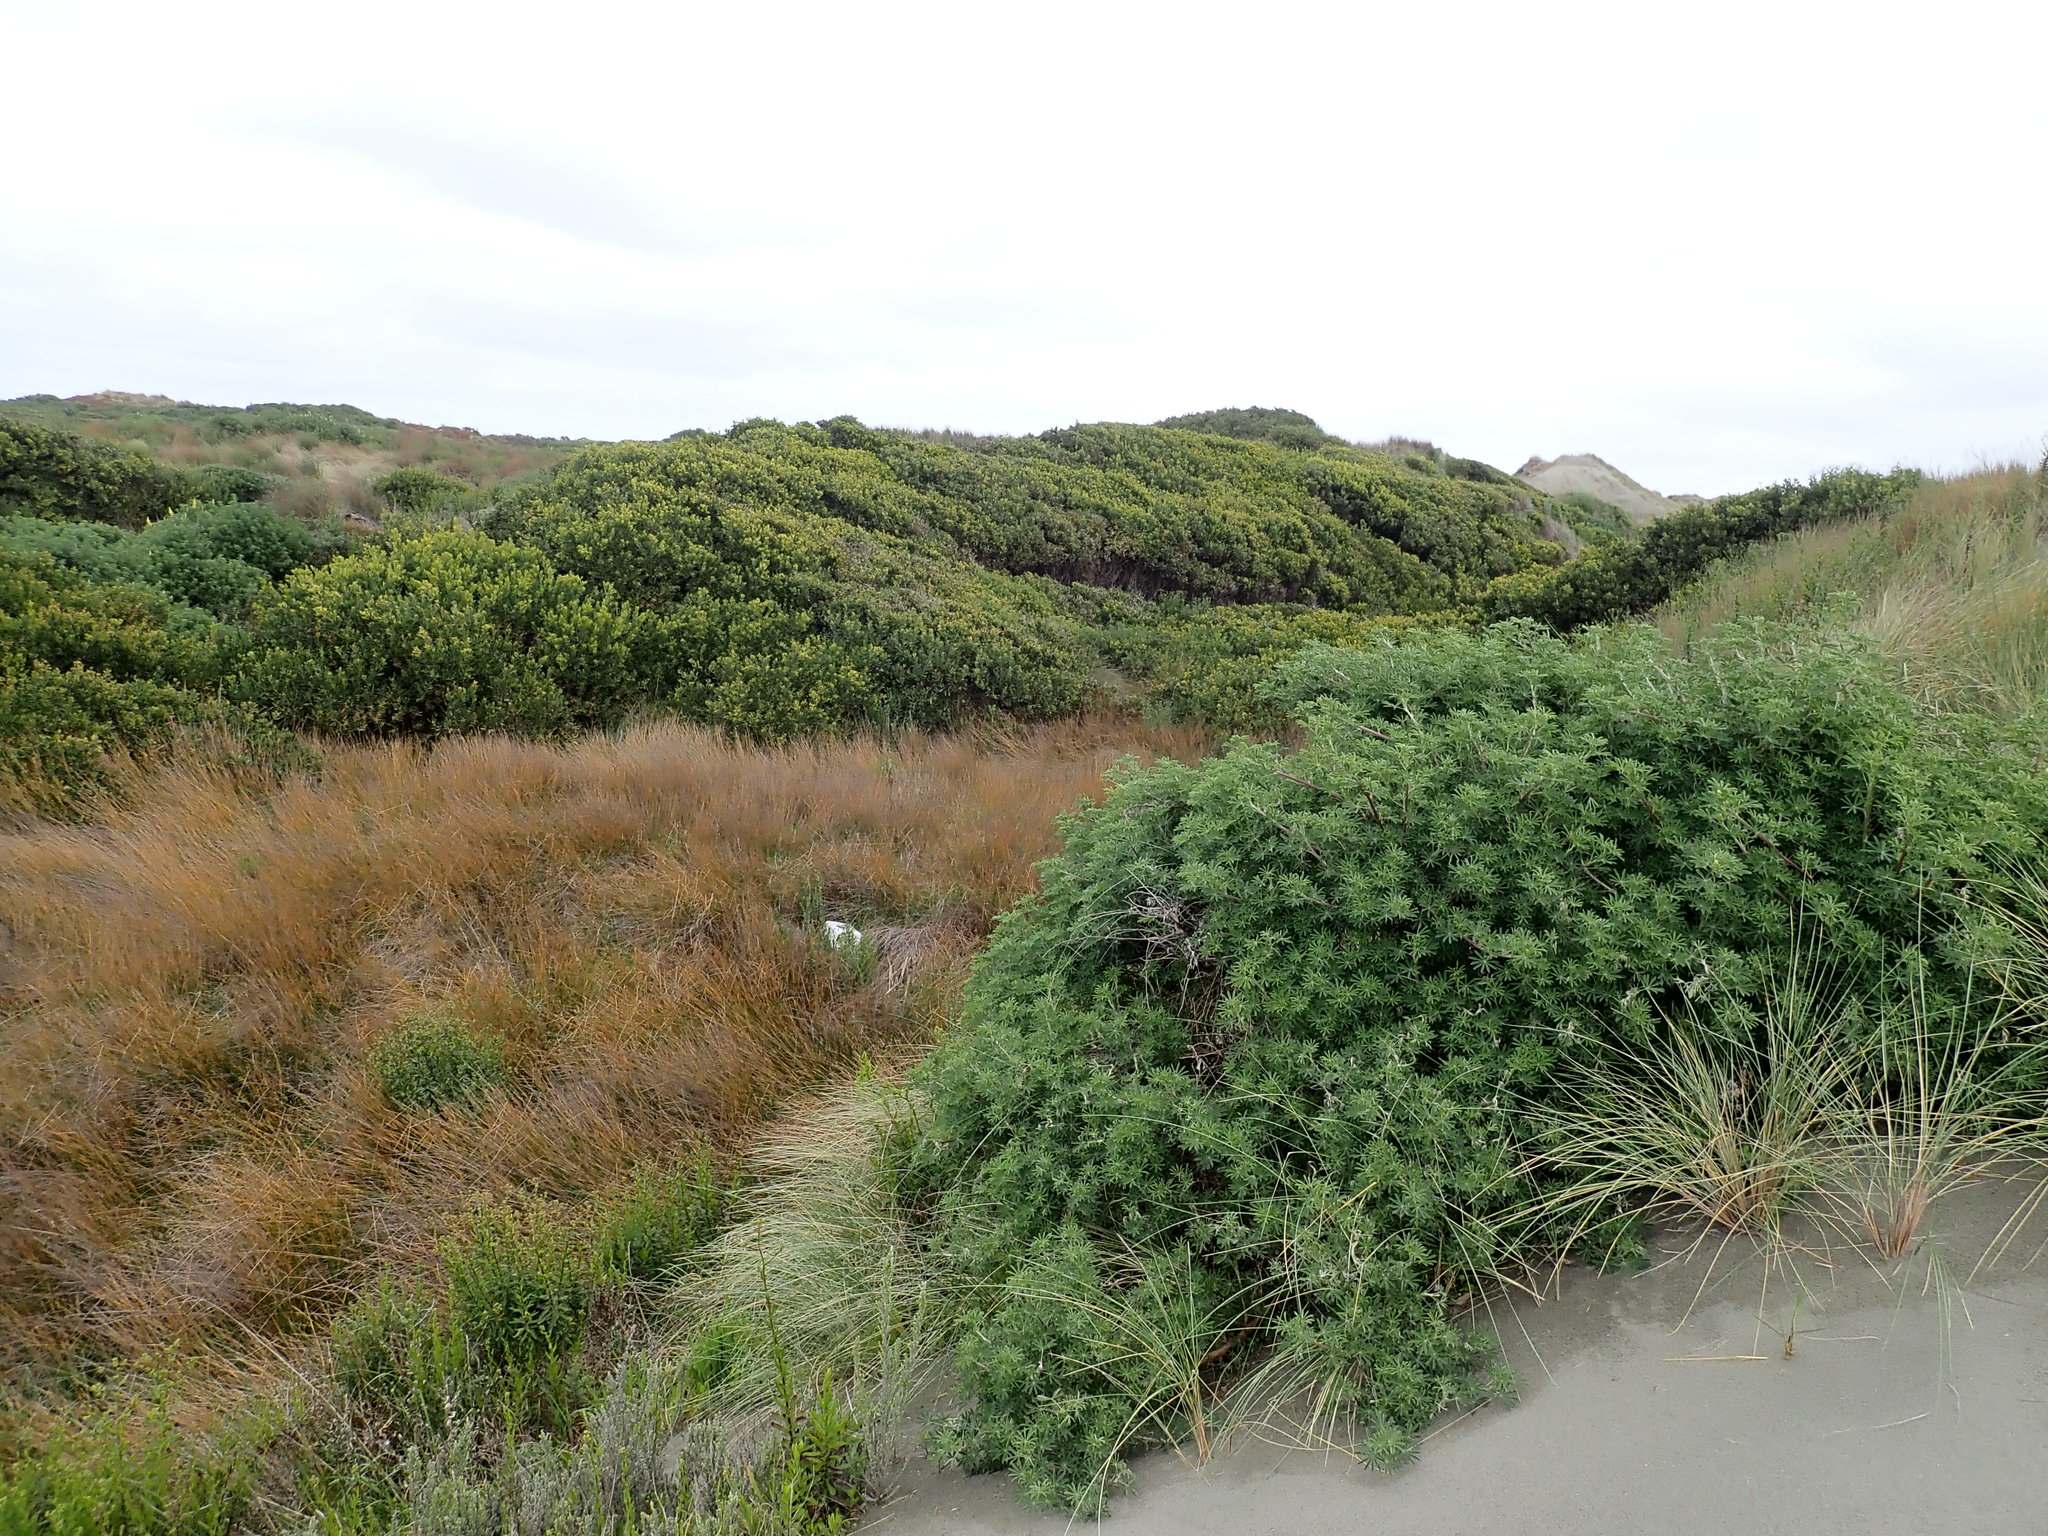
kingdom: Plantae
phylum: Tracheophyta
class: Magnoliopsida
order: Fabales
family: Fabaceae
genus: Acacia
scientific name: Acacia longifolia
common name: Sydney golden wattle
